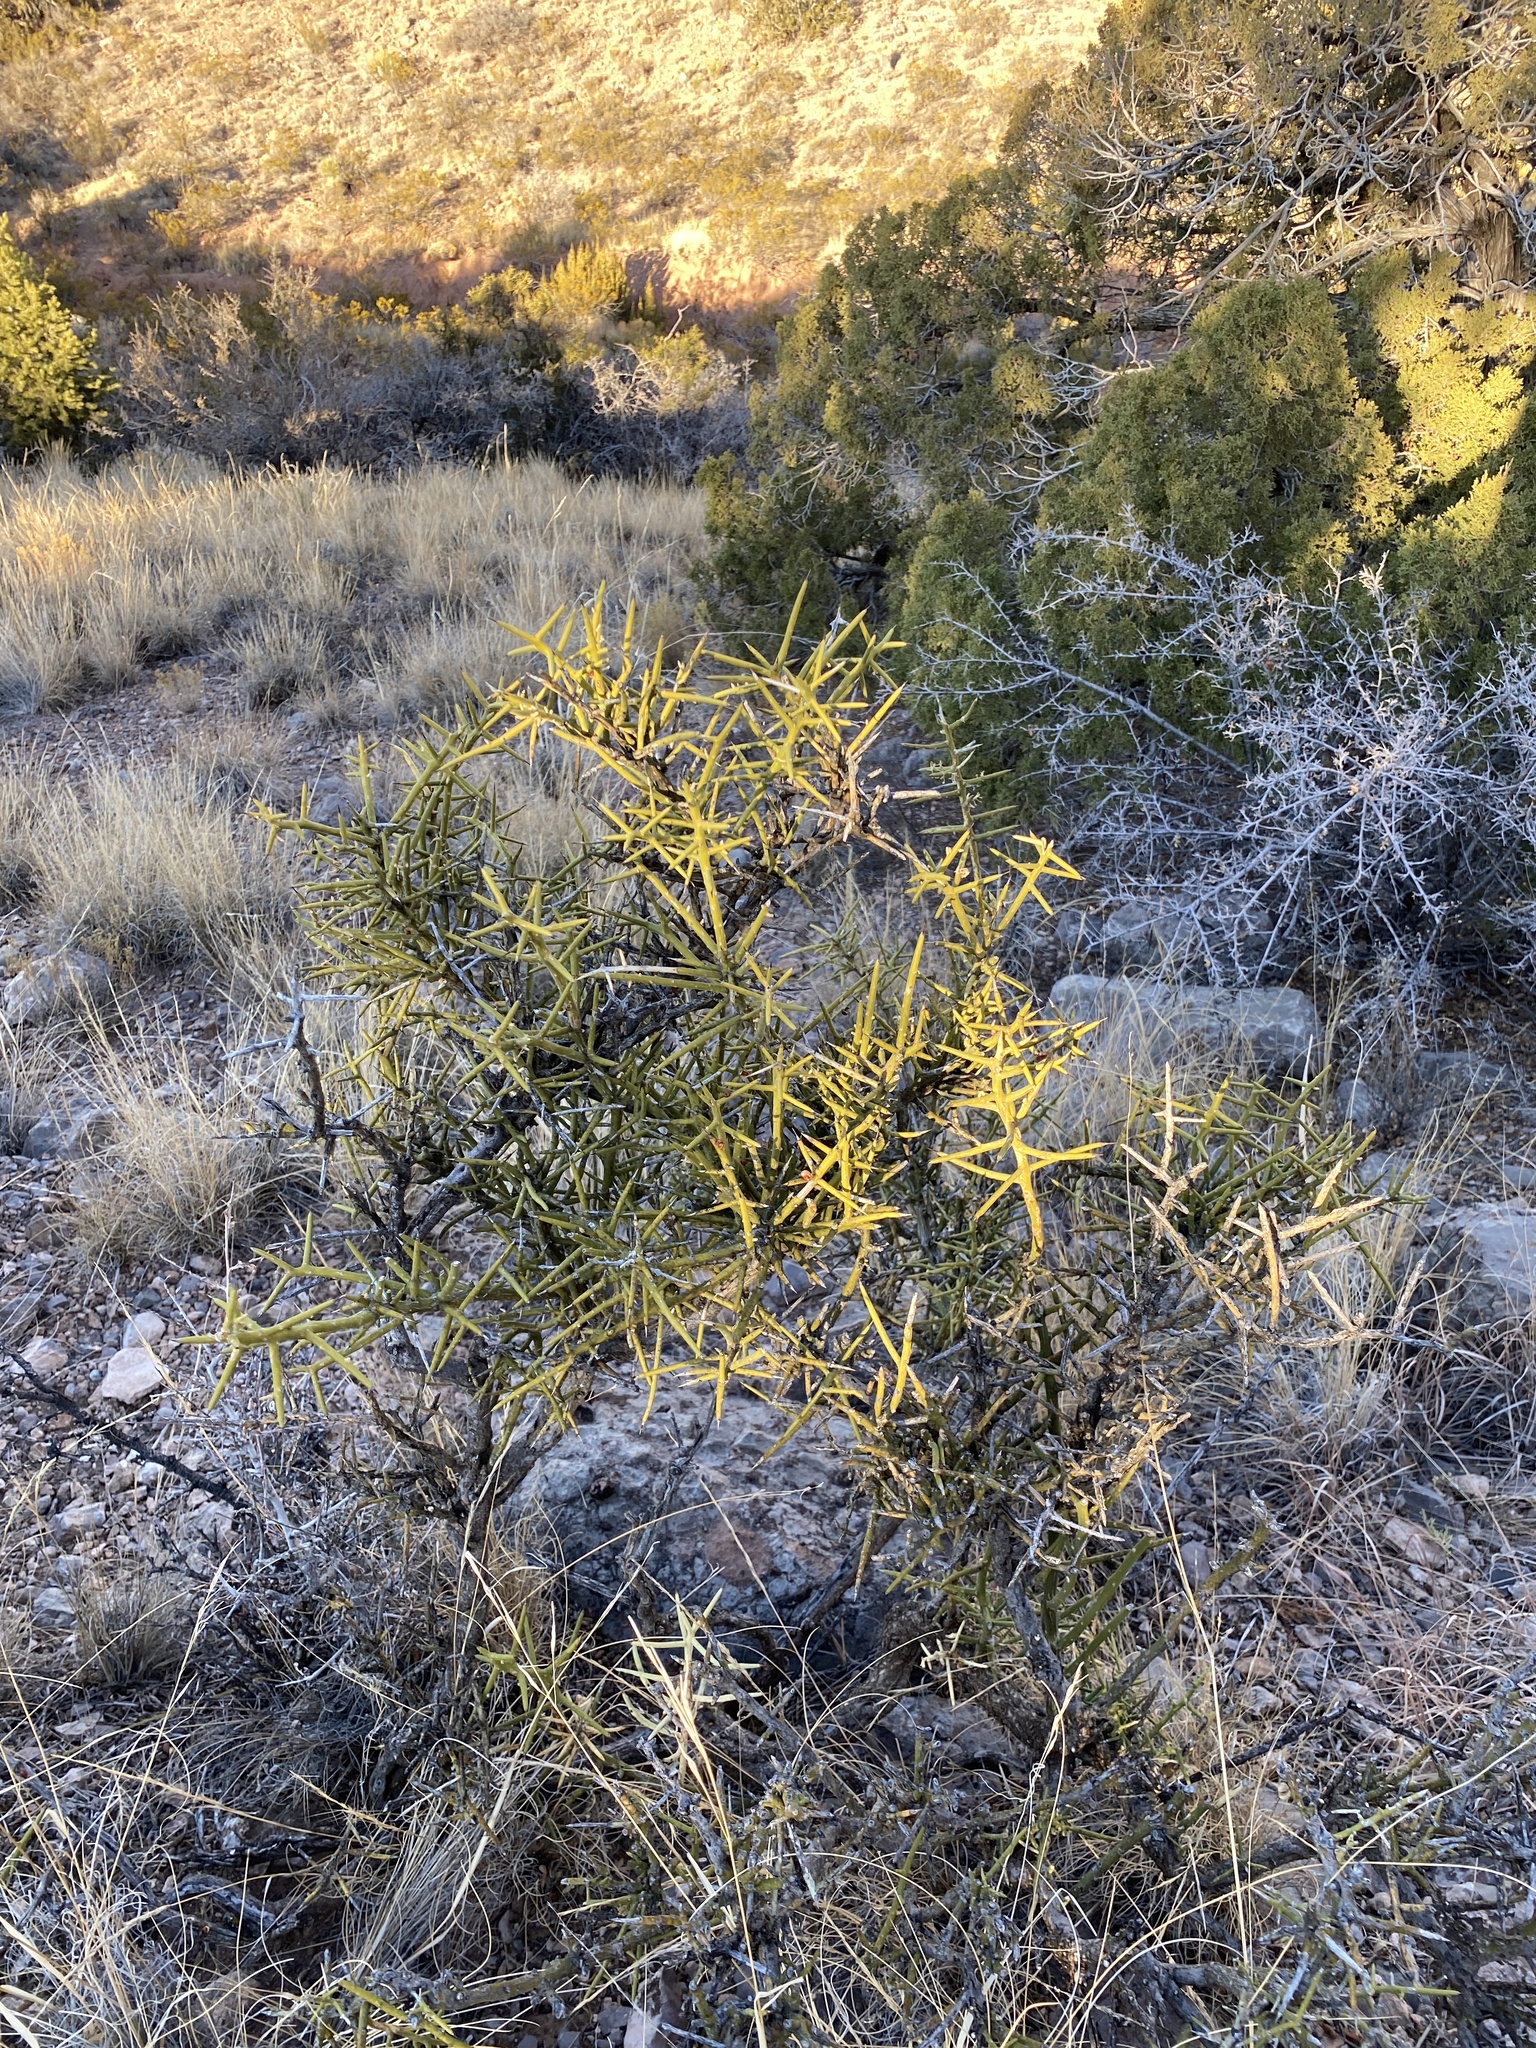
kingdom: Plantae
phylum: Tracheophyta
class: Magnoliopsida
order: Brassicales
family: Koeberliniaceae
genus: Koeberlinia
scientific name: Koeberlinia spinosa
